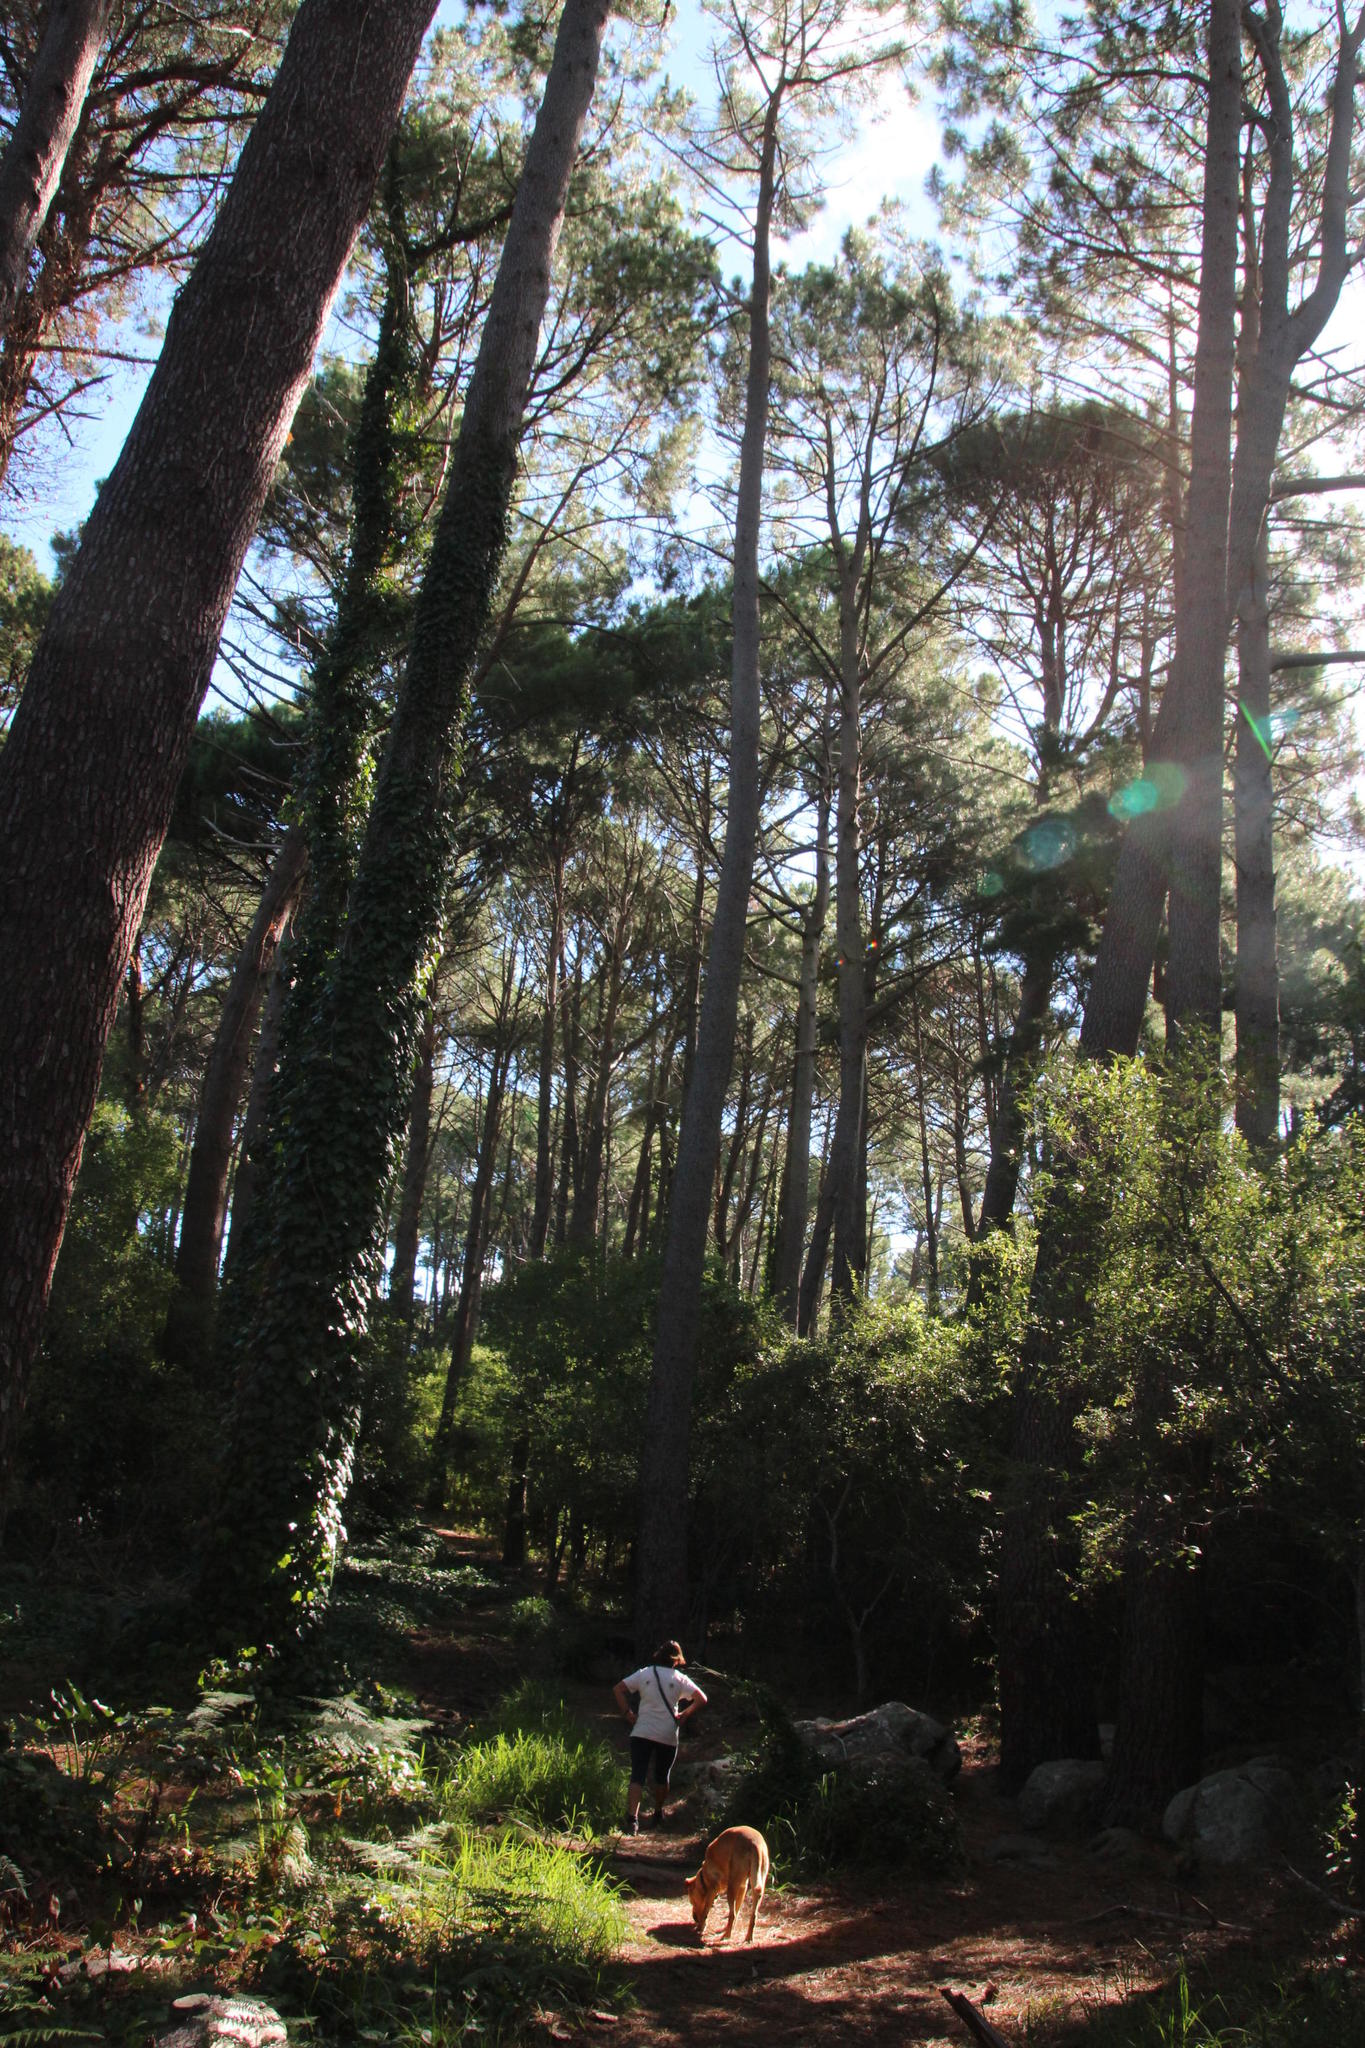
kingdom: Plantae
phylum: Tracheophyta
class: Magnoliopsida
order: Apiales
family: Araliaceae
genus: Hedera
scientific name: Hedera canariensis
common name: Madeira ivy
